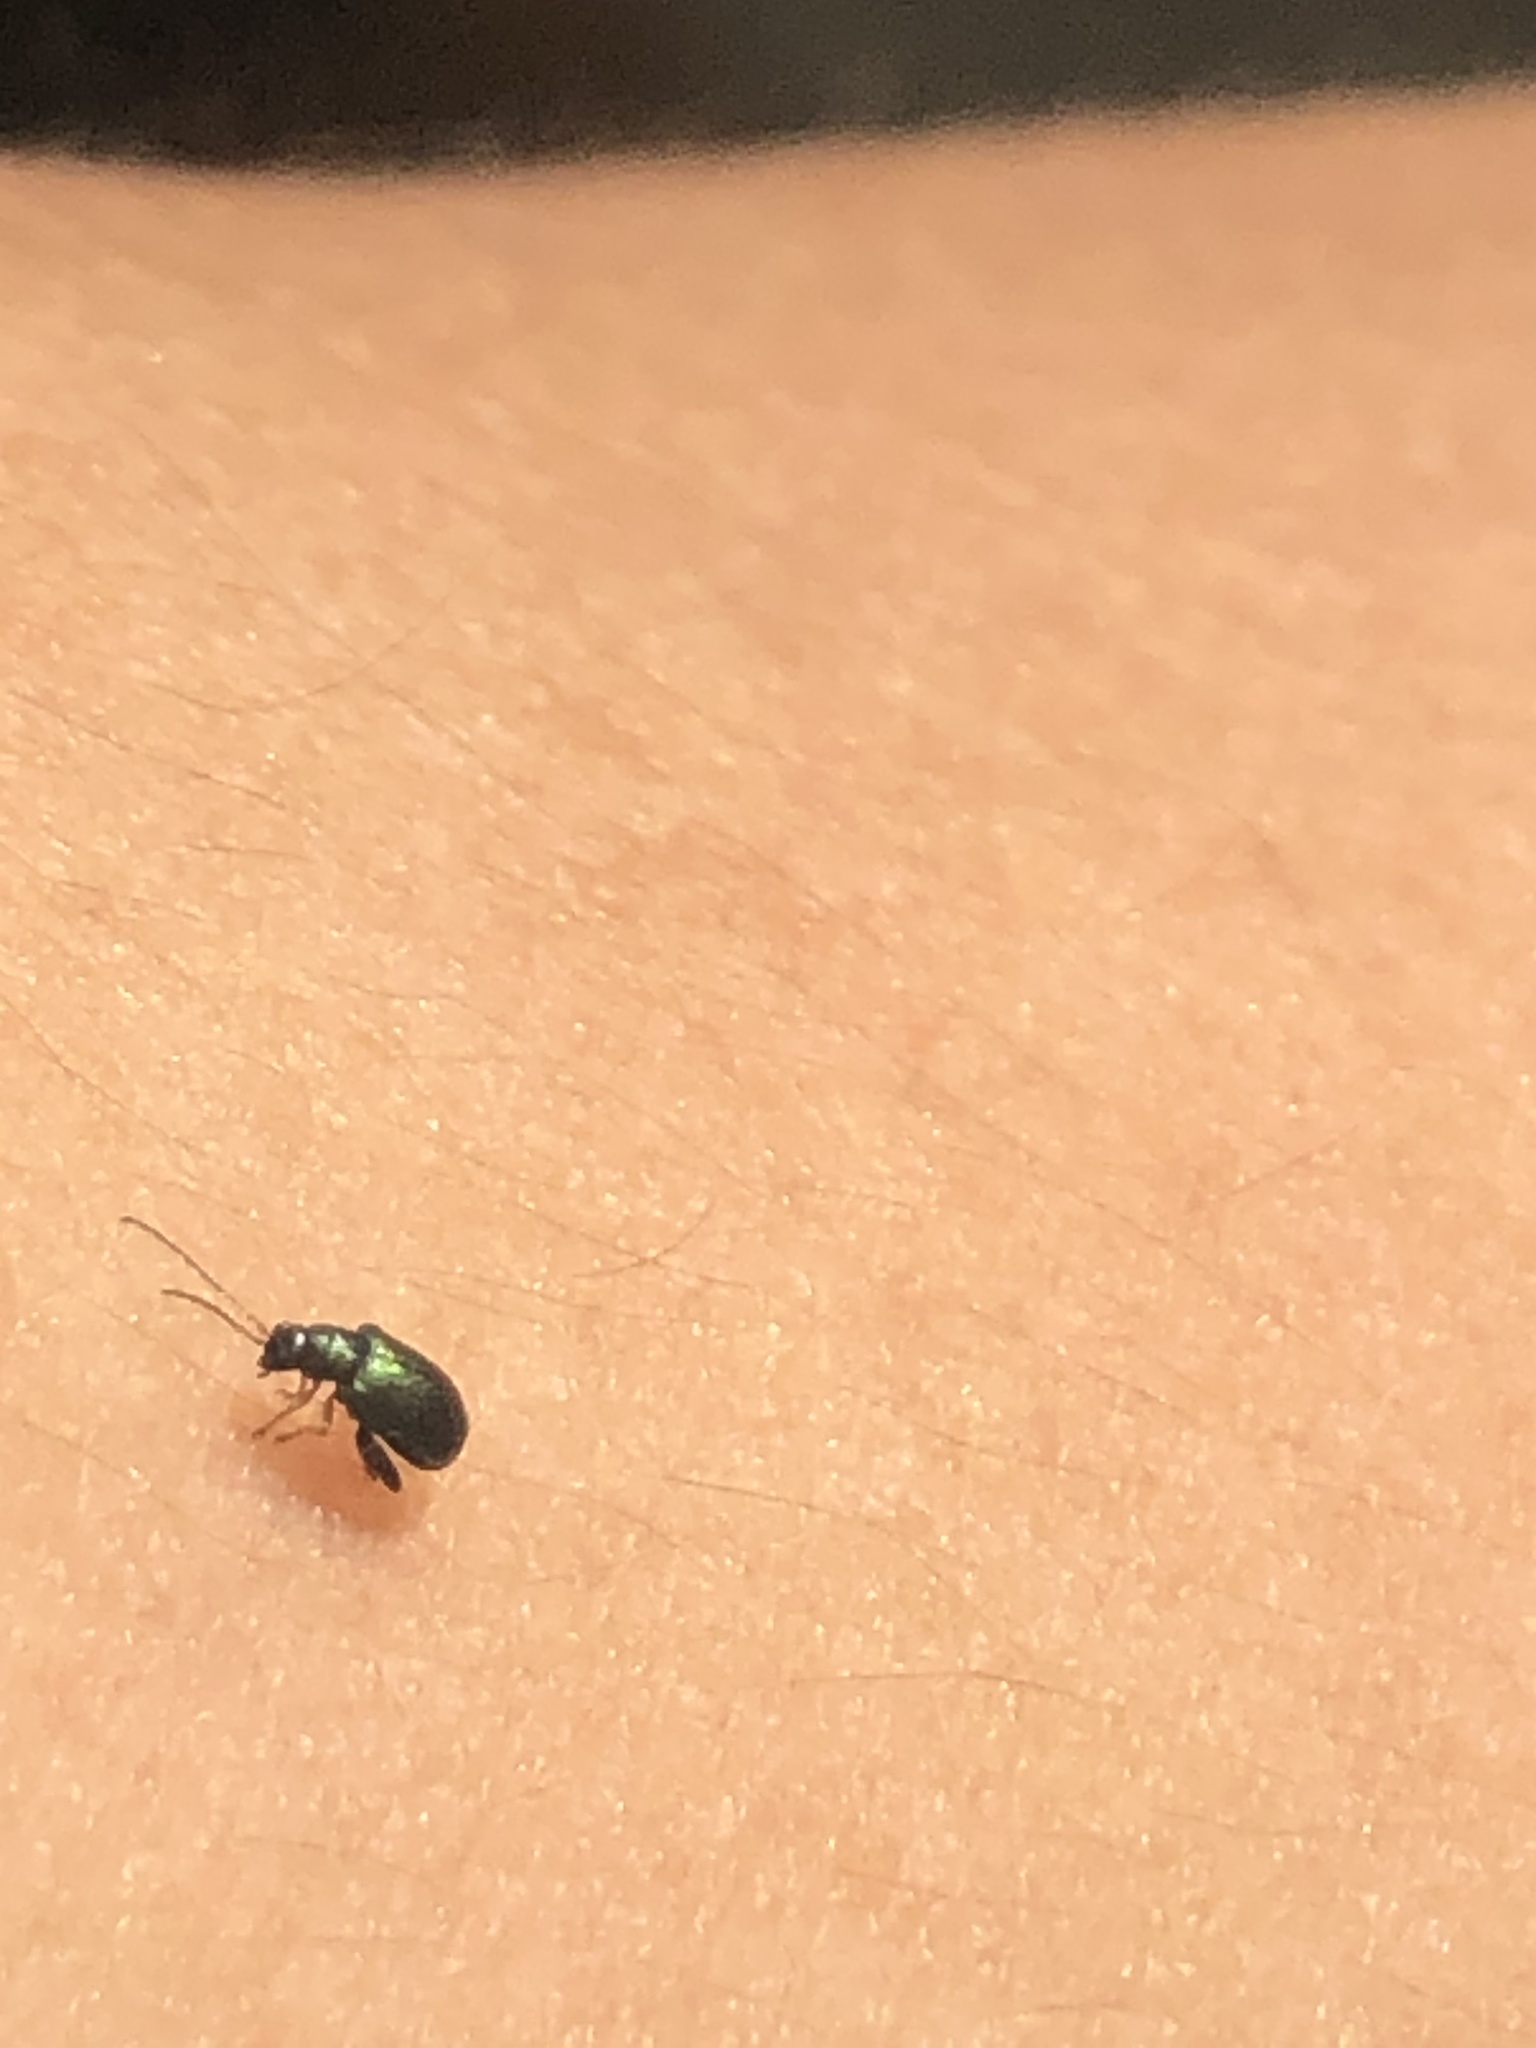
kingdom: Animalia
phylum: Arthropoda
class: Insecta
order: Coleoptera
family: Chrysomelidae
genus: Aphthona
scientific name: Aphthona strigosa
